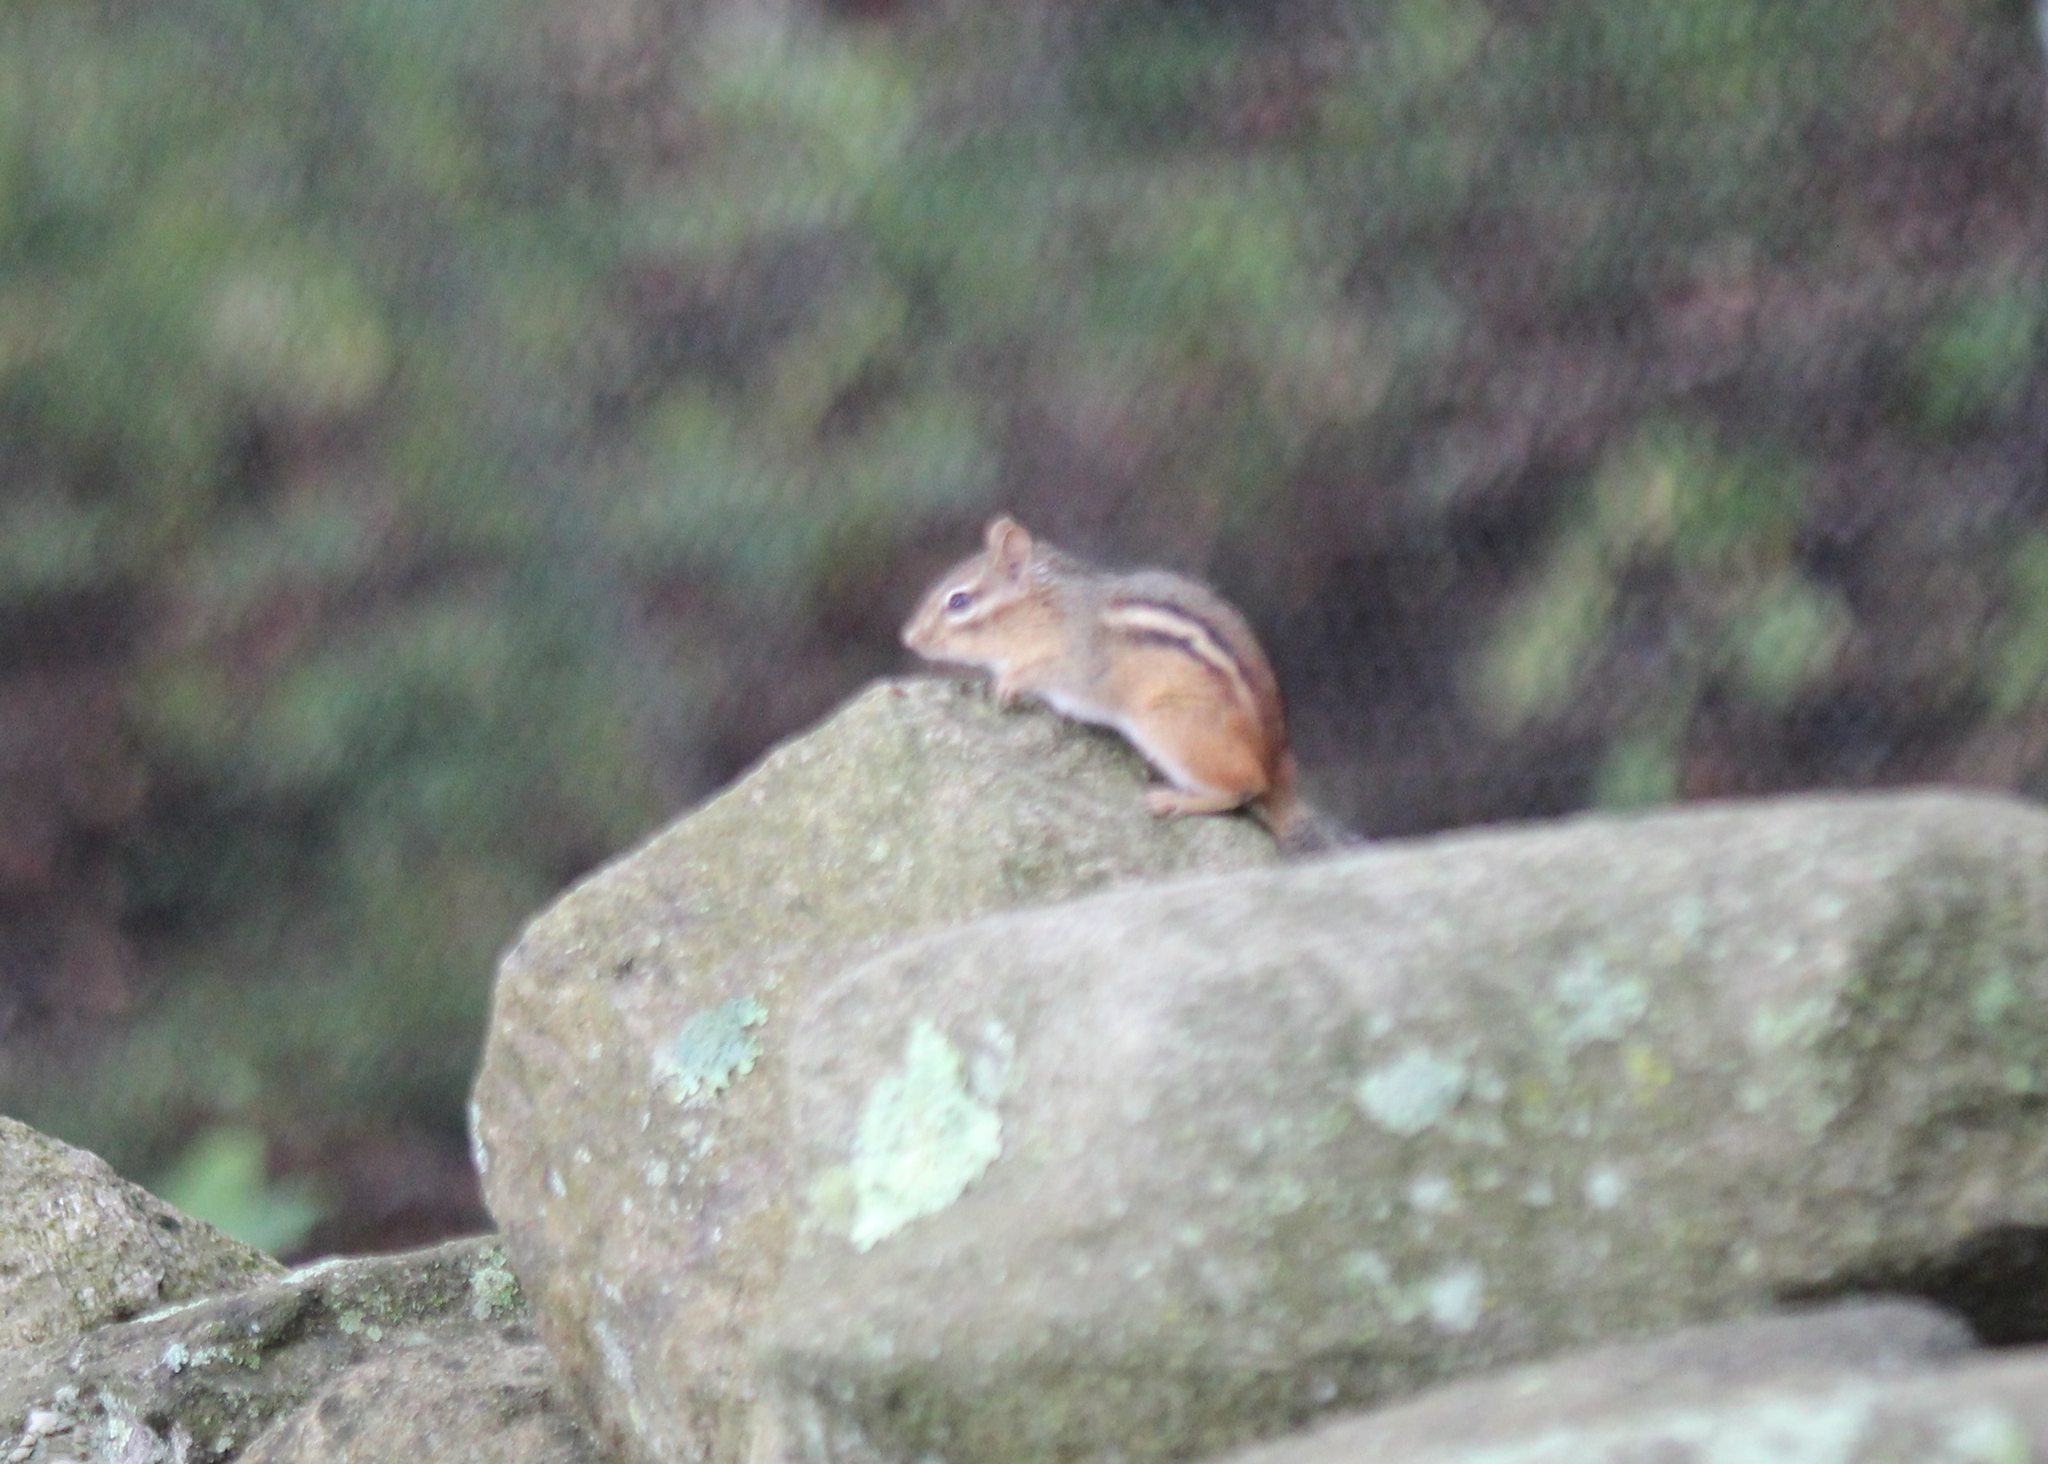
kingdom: Animalia
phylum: Chordata
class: Mammalia
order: Rodentia
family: Sciuridae
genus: Tamias
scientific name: Tamias striatus
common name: Eastern chipmunk
